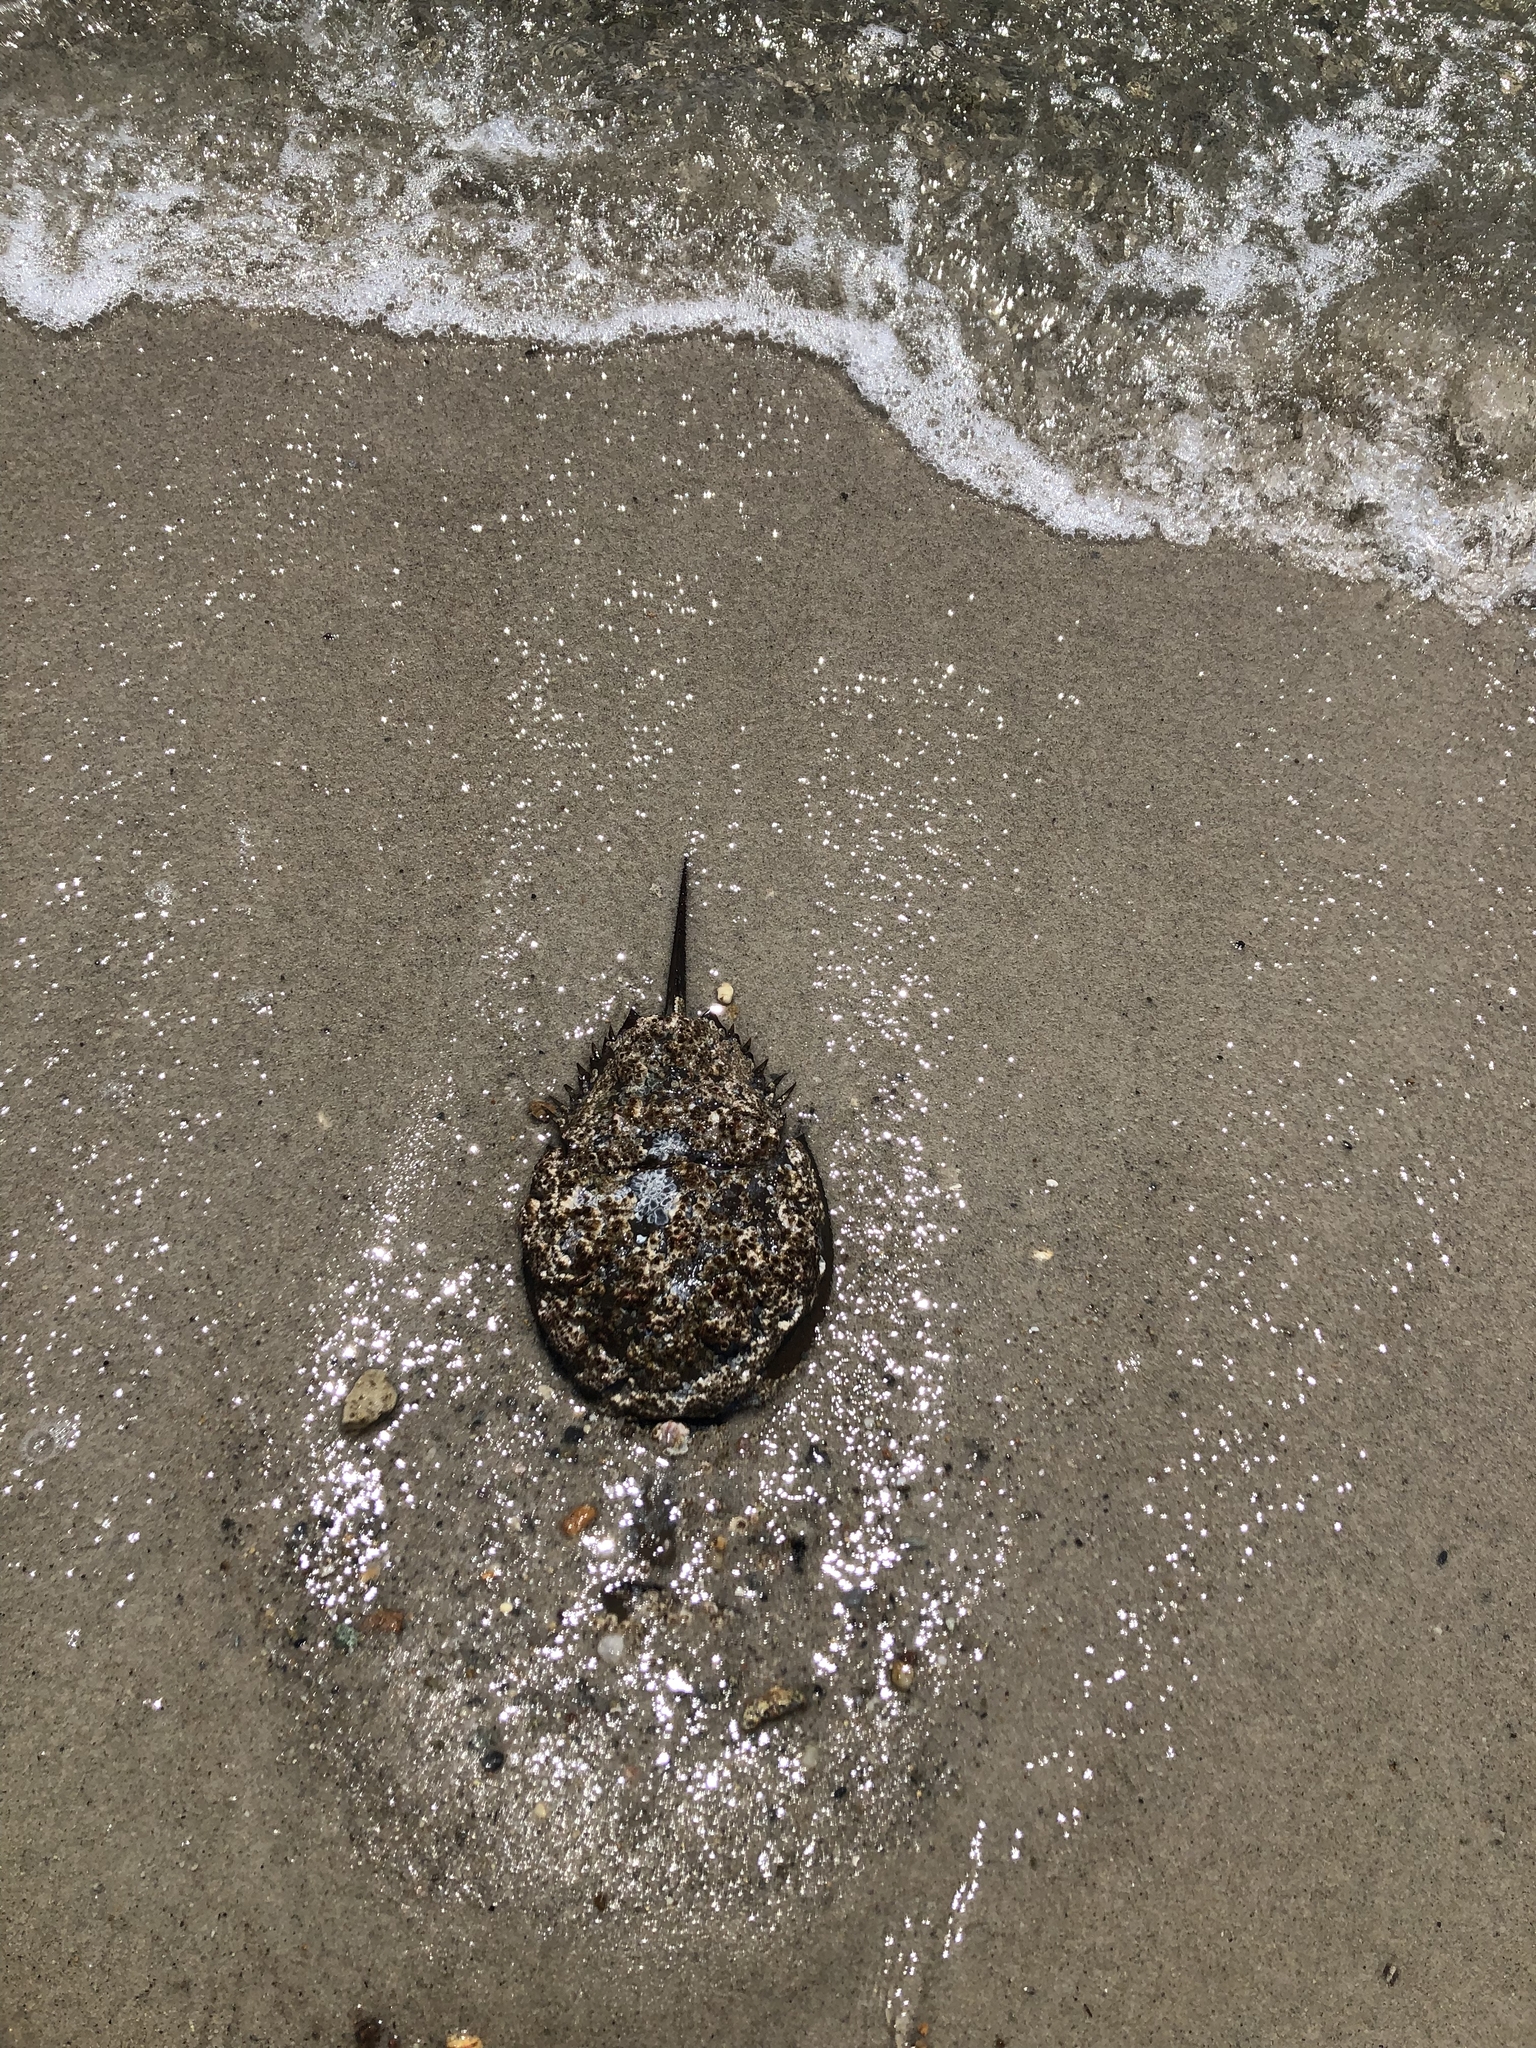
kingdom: Animalia
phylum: Arthropoda
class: Merostomata
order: Xiphosurida
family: Limulidae
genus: Limulus
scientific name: Limulus polyphemus
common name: Horseshoe crab
